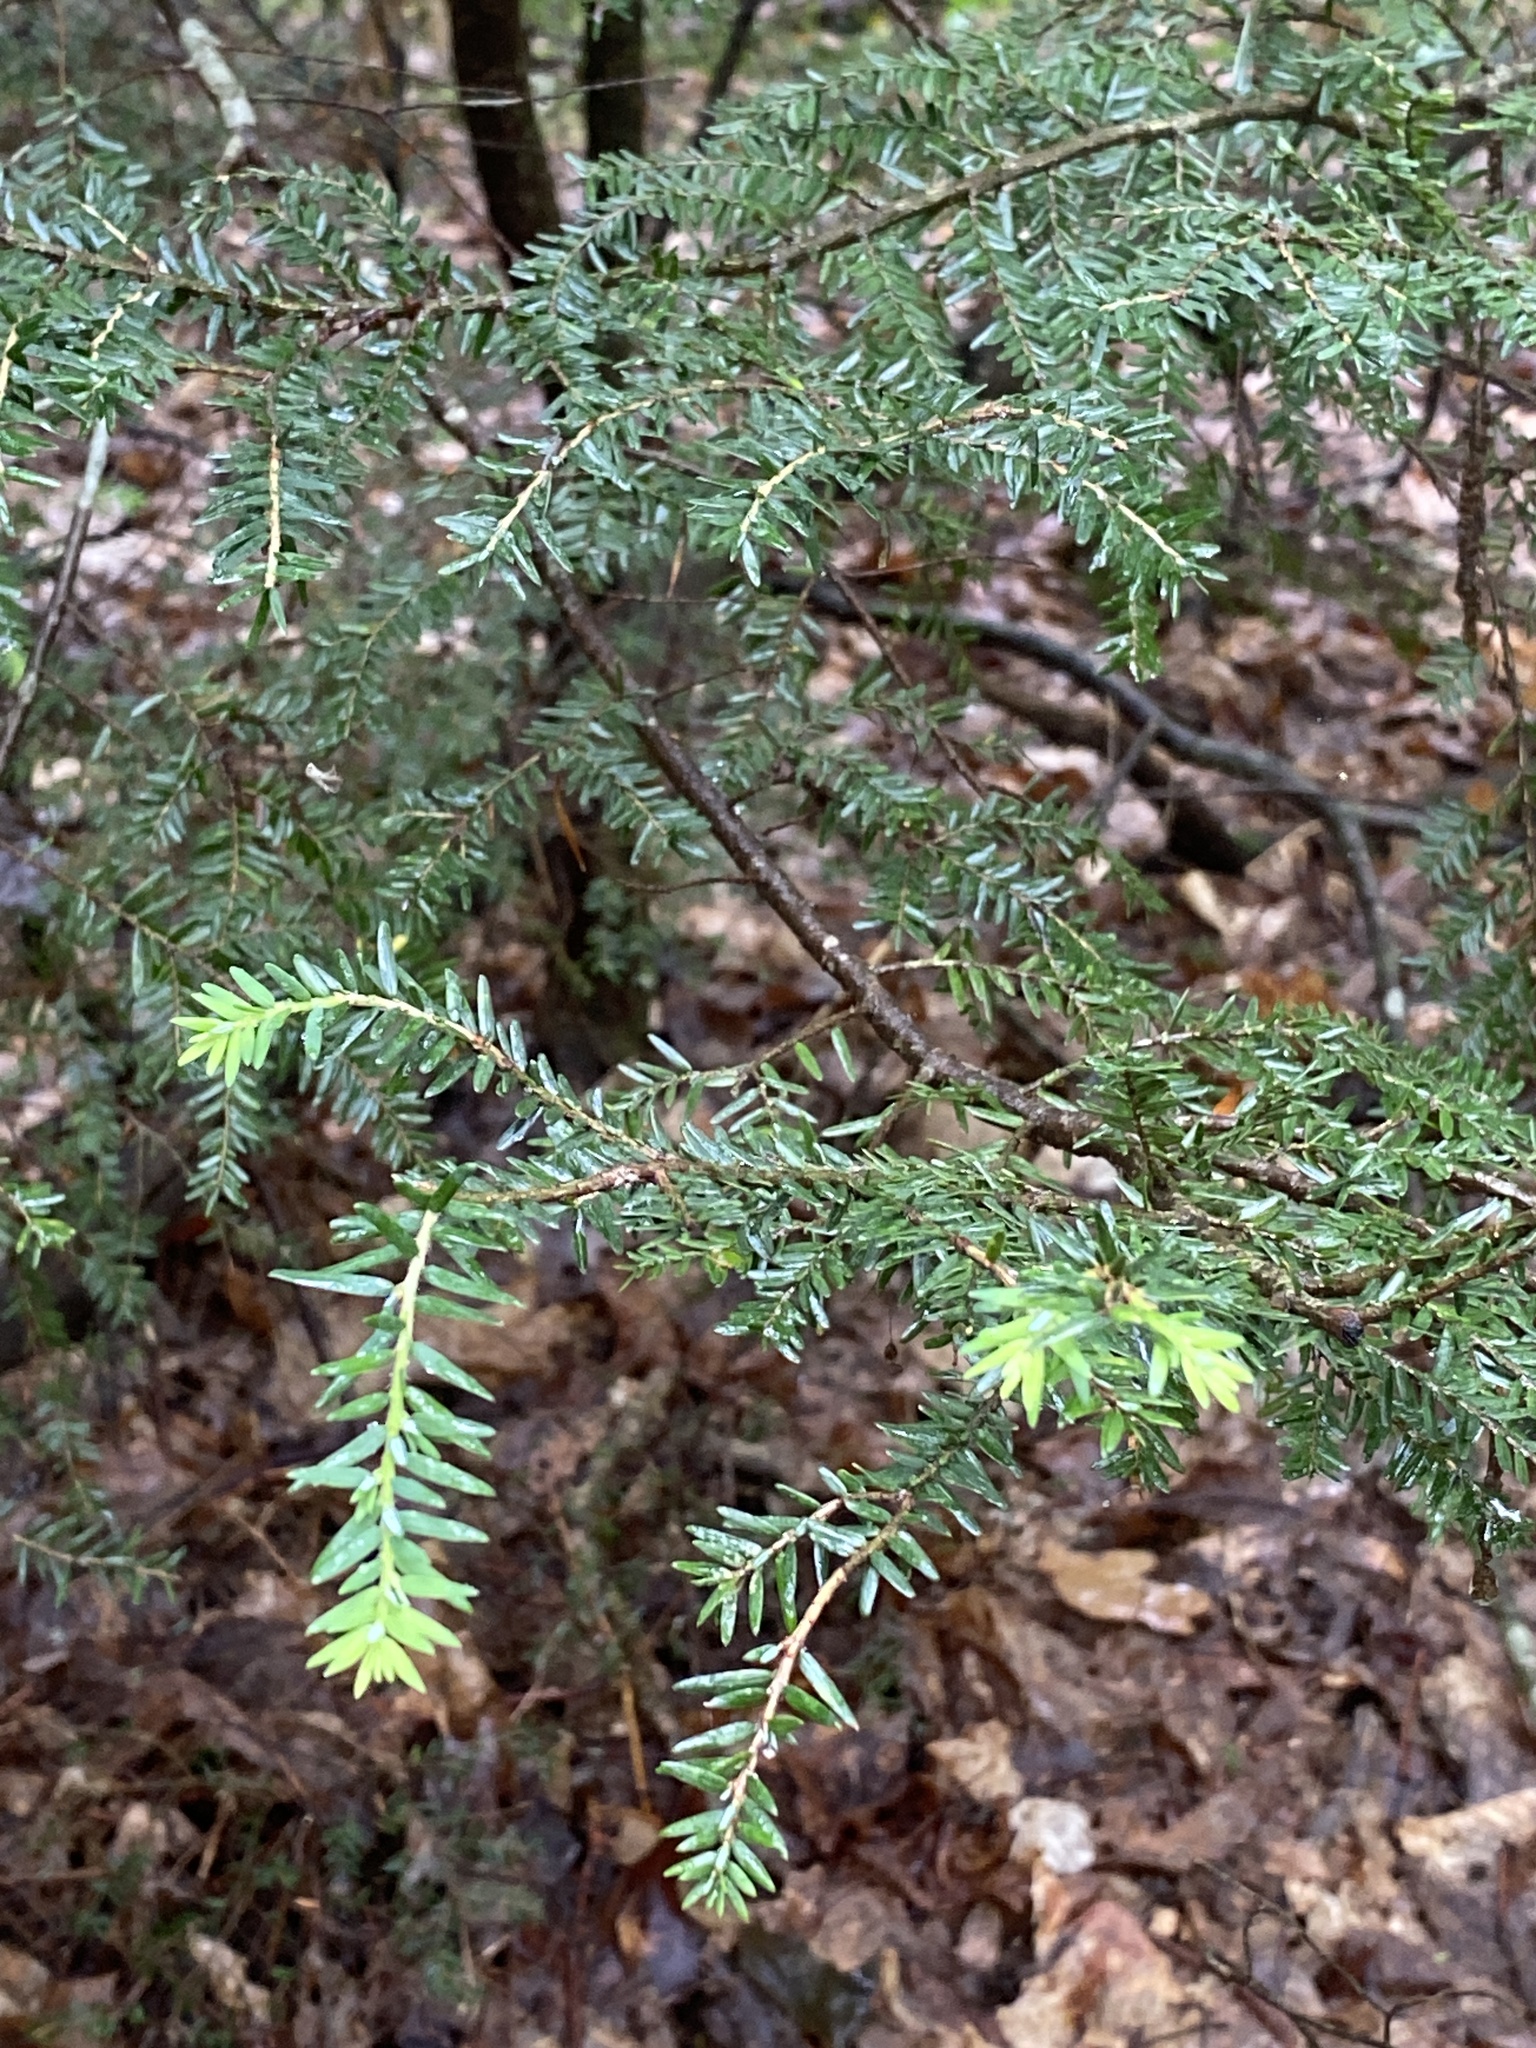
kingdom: Plantae
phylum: Tracheophyta
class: Pinopsida
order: Pinales
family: Pinaceae
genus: Tsuga
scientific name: Tsuga canadensis
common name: Eastern hemlock
